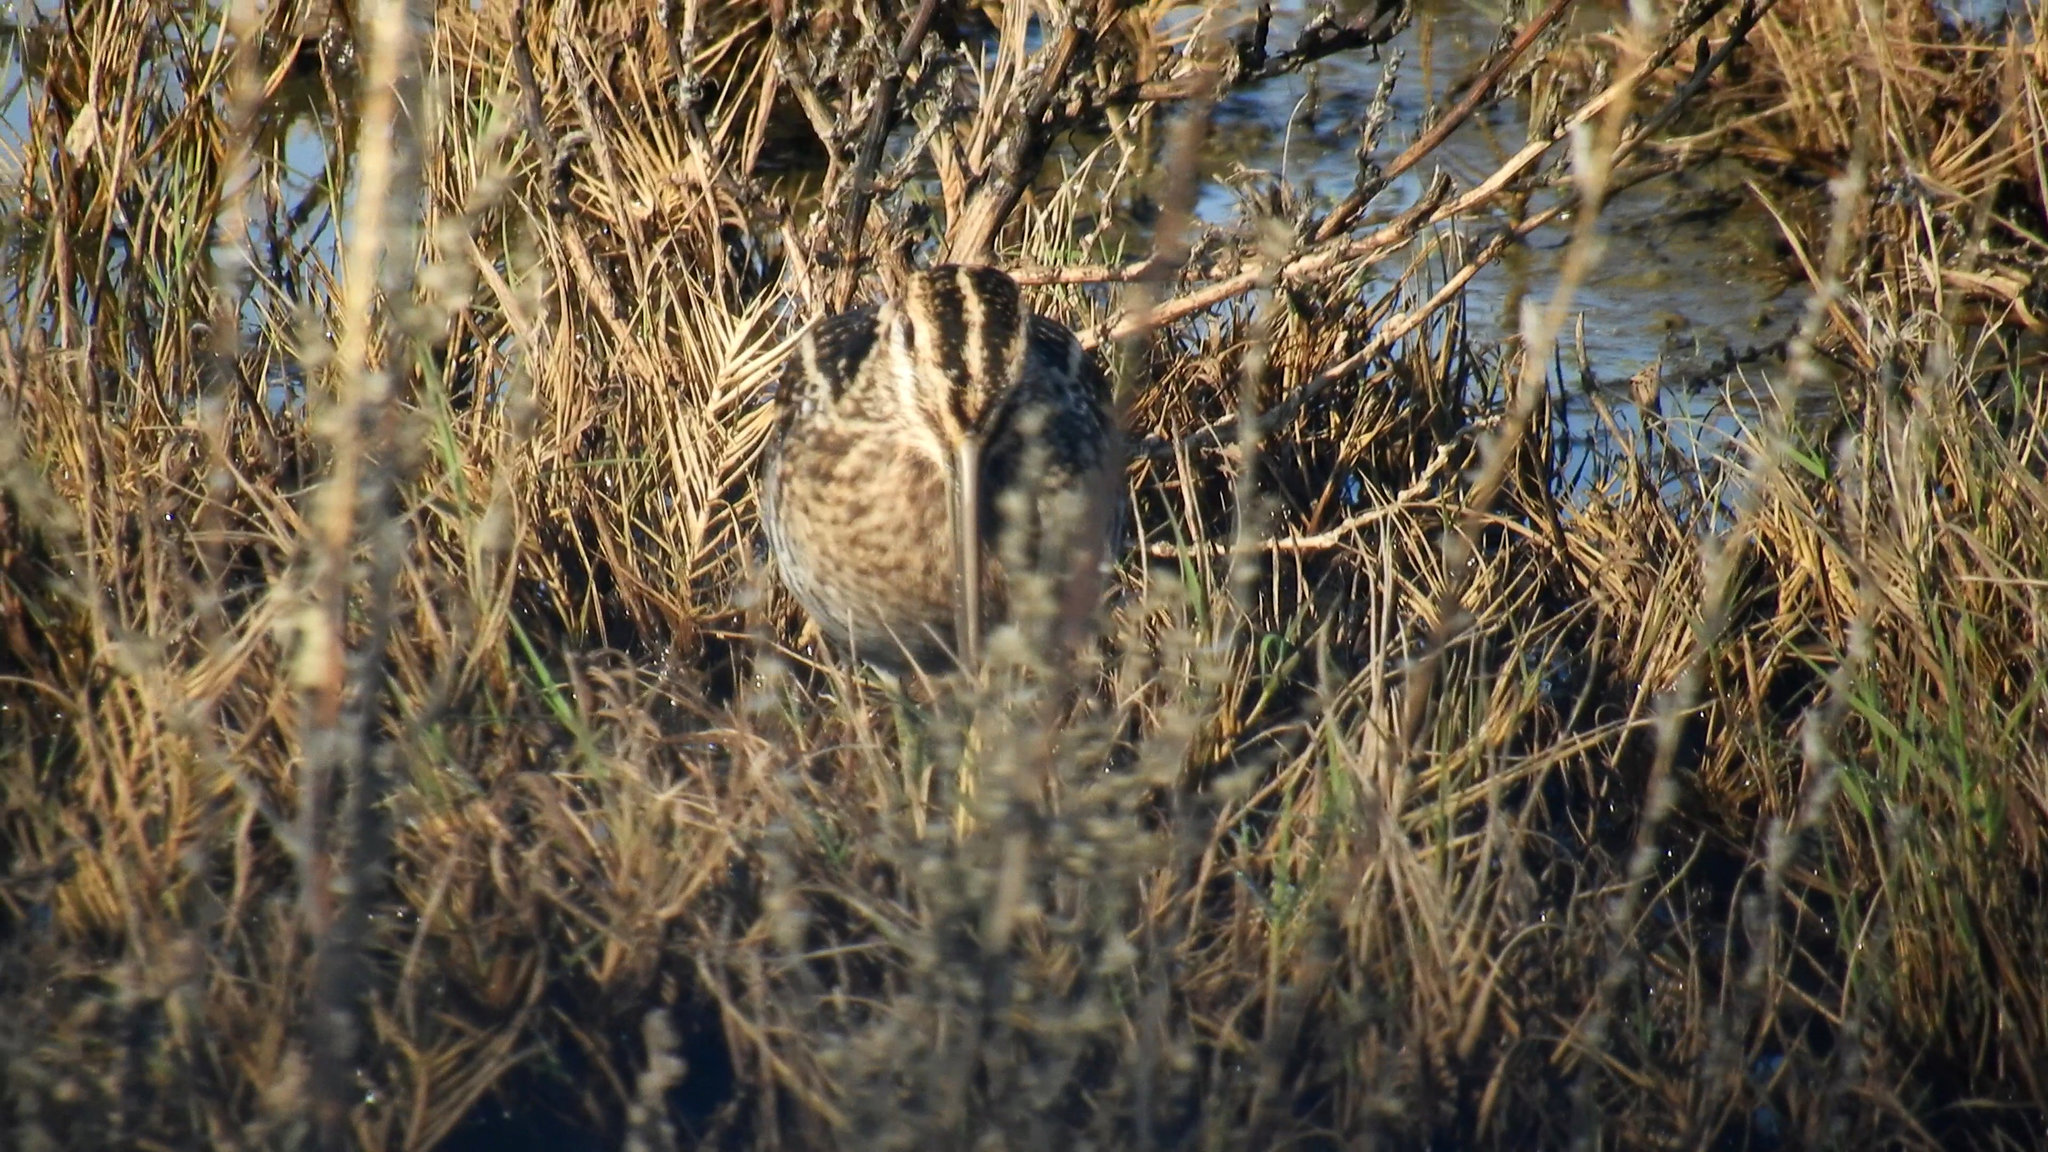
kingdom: Animalia
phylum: Chordata
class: Aves
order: Charadriiformes
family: Scolopacidae
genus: Gallinago
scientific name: Gallinago delicata
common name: Wilson's snipe
